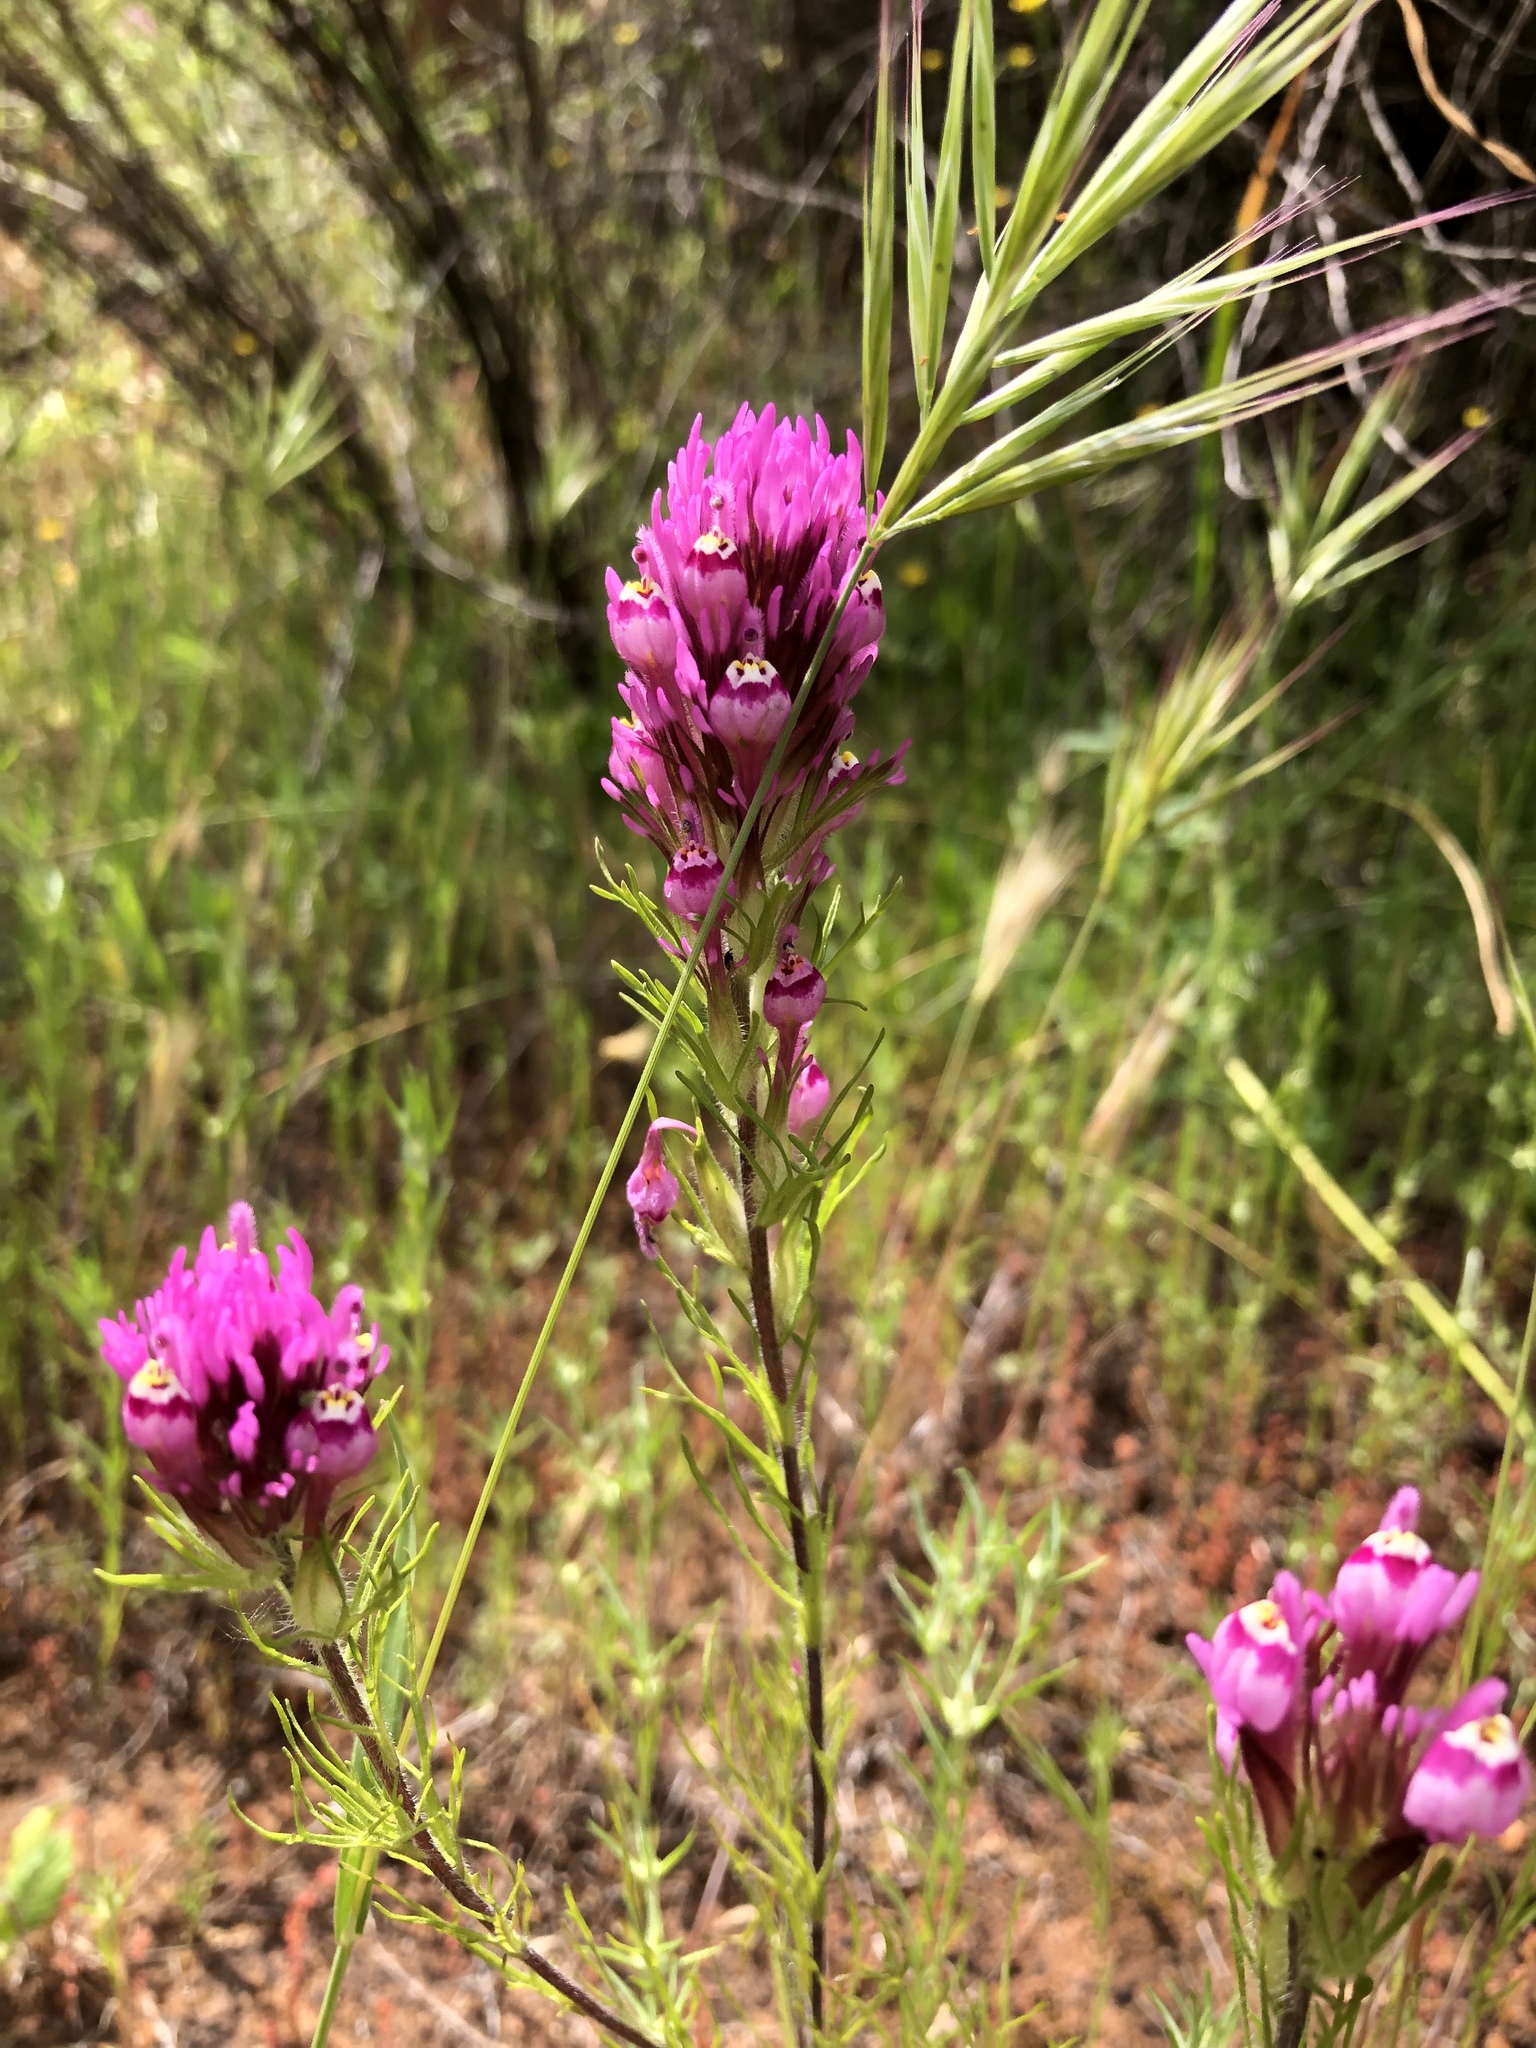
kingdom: Plantae
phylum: Tracheophyta
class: Magnoliopsida
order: Lamiales
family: Orobanchaceae
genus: Castilleja
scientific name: Castilleja exserta
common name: Purple owl-clover
